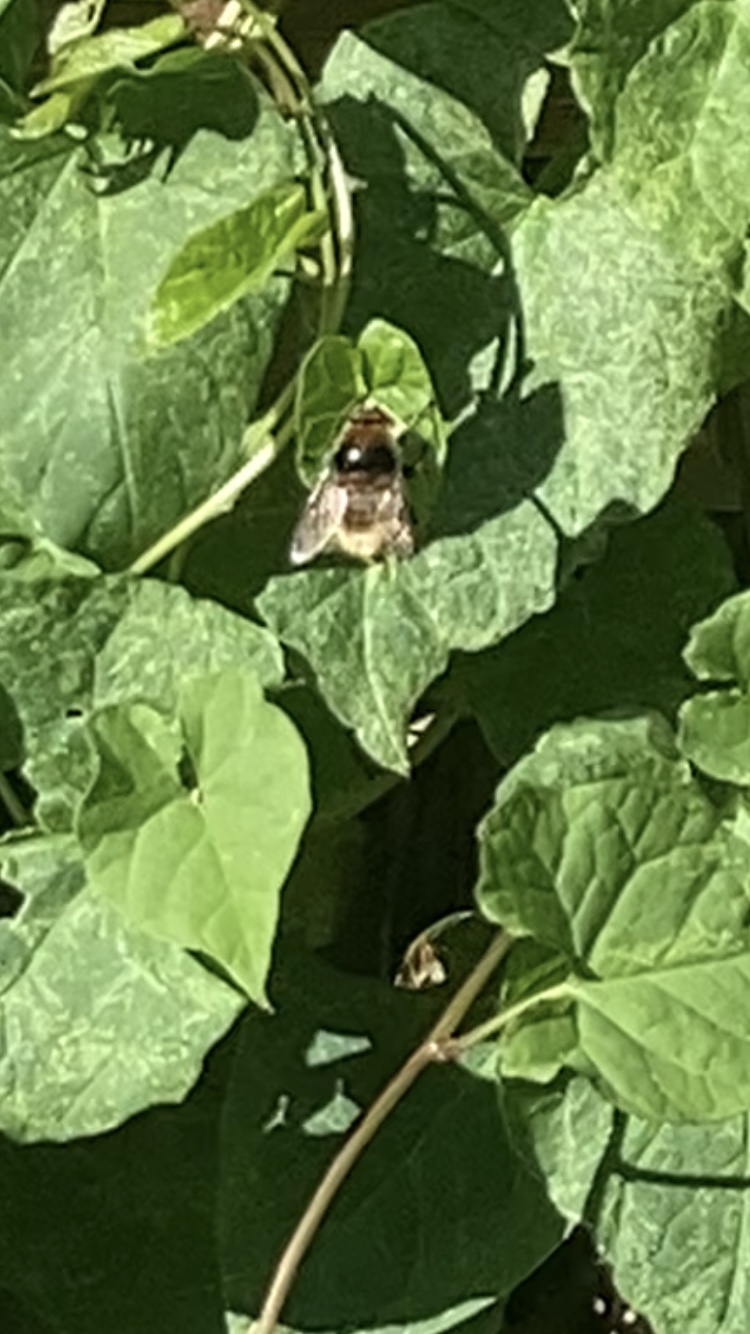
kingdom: Animalia
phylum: Arthropoda
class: Insecta
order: Diptera
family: Syrphidae
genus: Merodon
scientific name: Merodon equestris
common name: Greater bulb-fly
